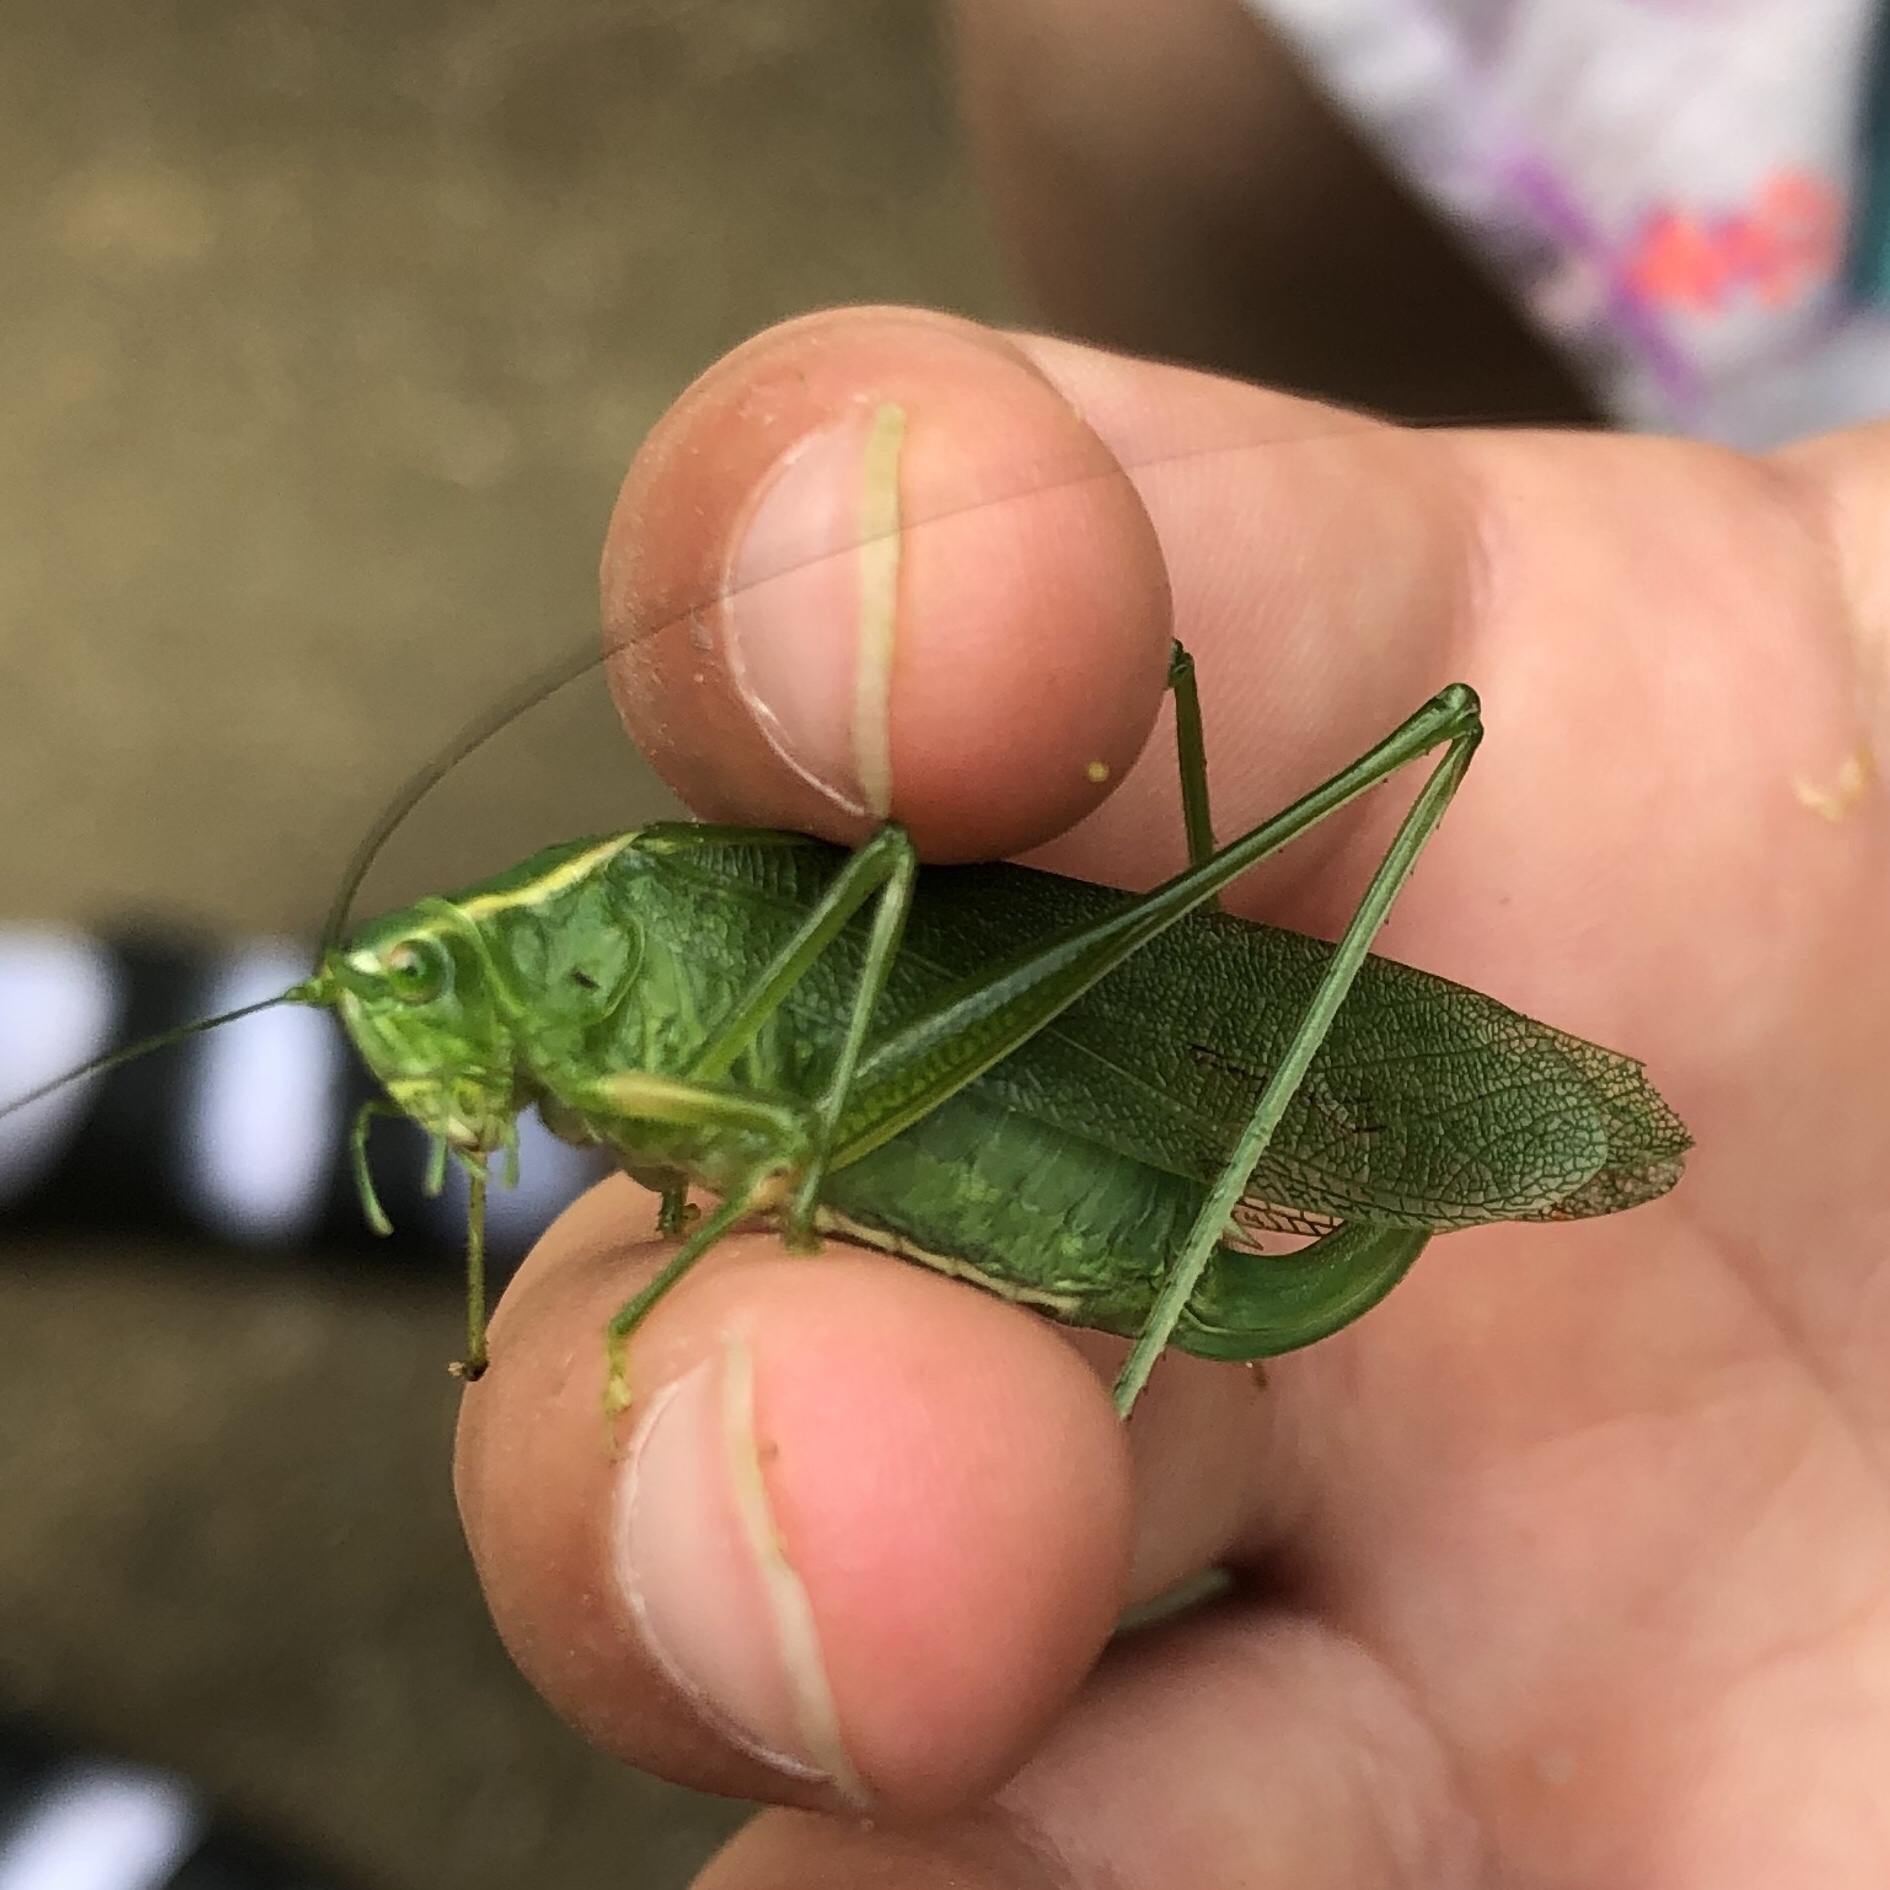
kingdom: Animalia
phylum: Arthropoda
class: Insecta
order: Orthoptera
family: Tettigoniidae
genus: Scudderia
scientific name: Scudderia septentrionalis
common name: Northern bush-katydid
